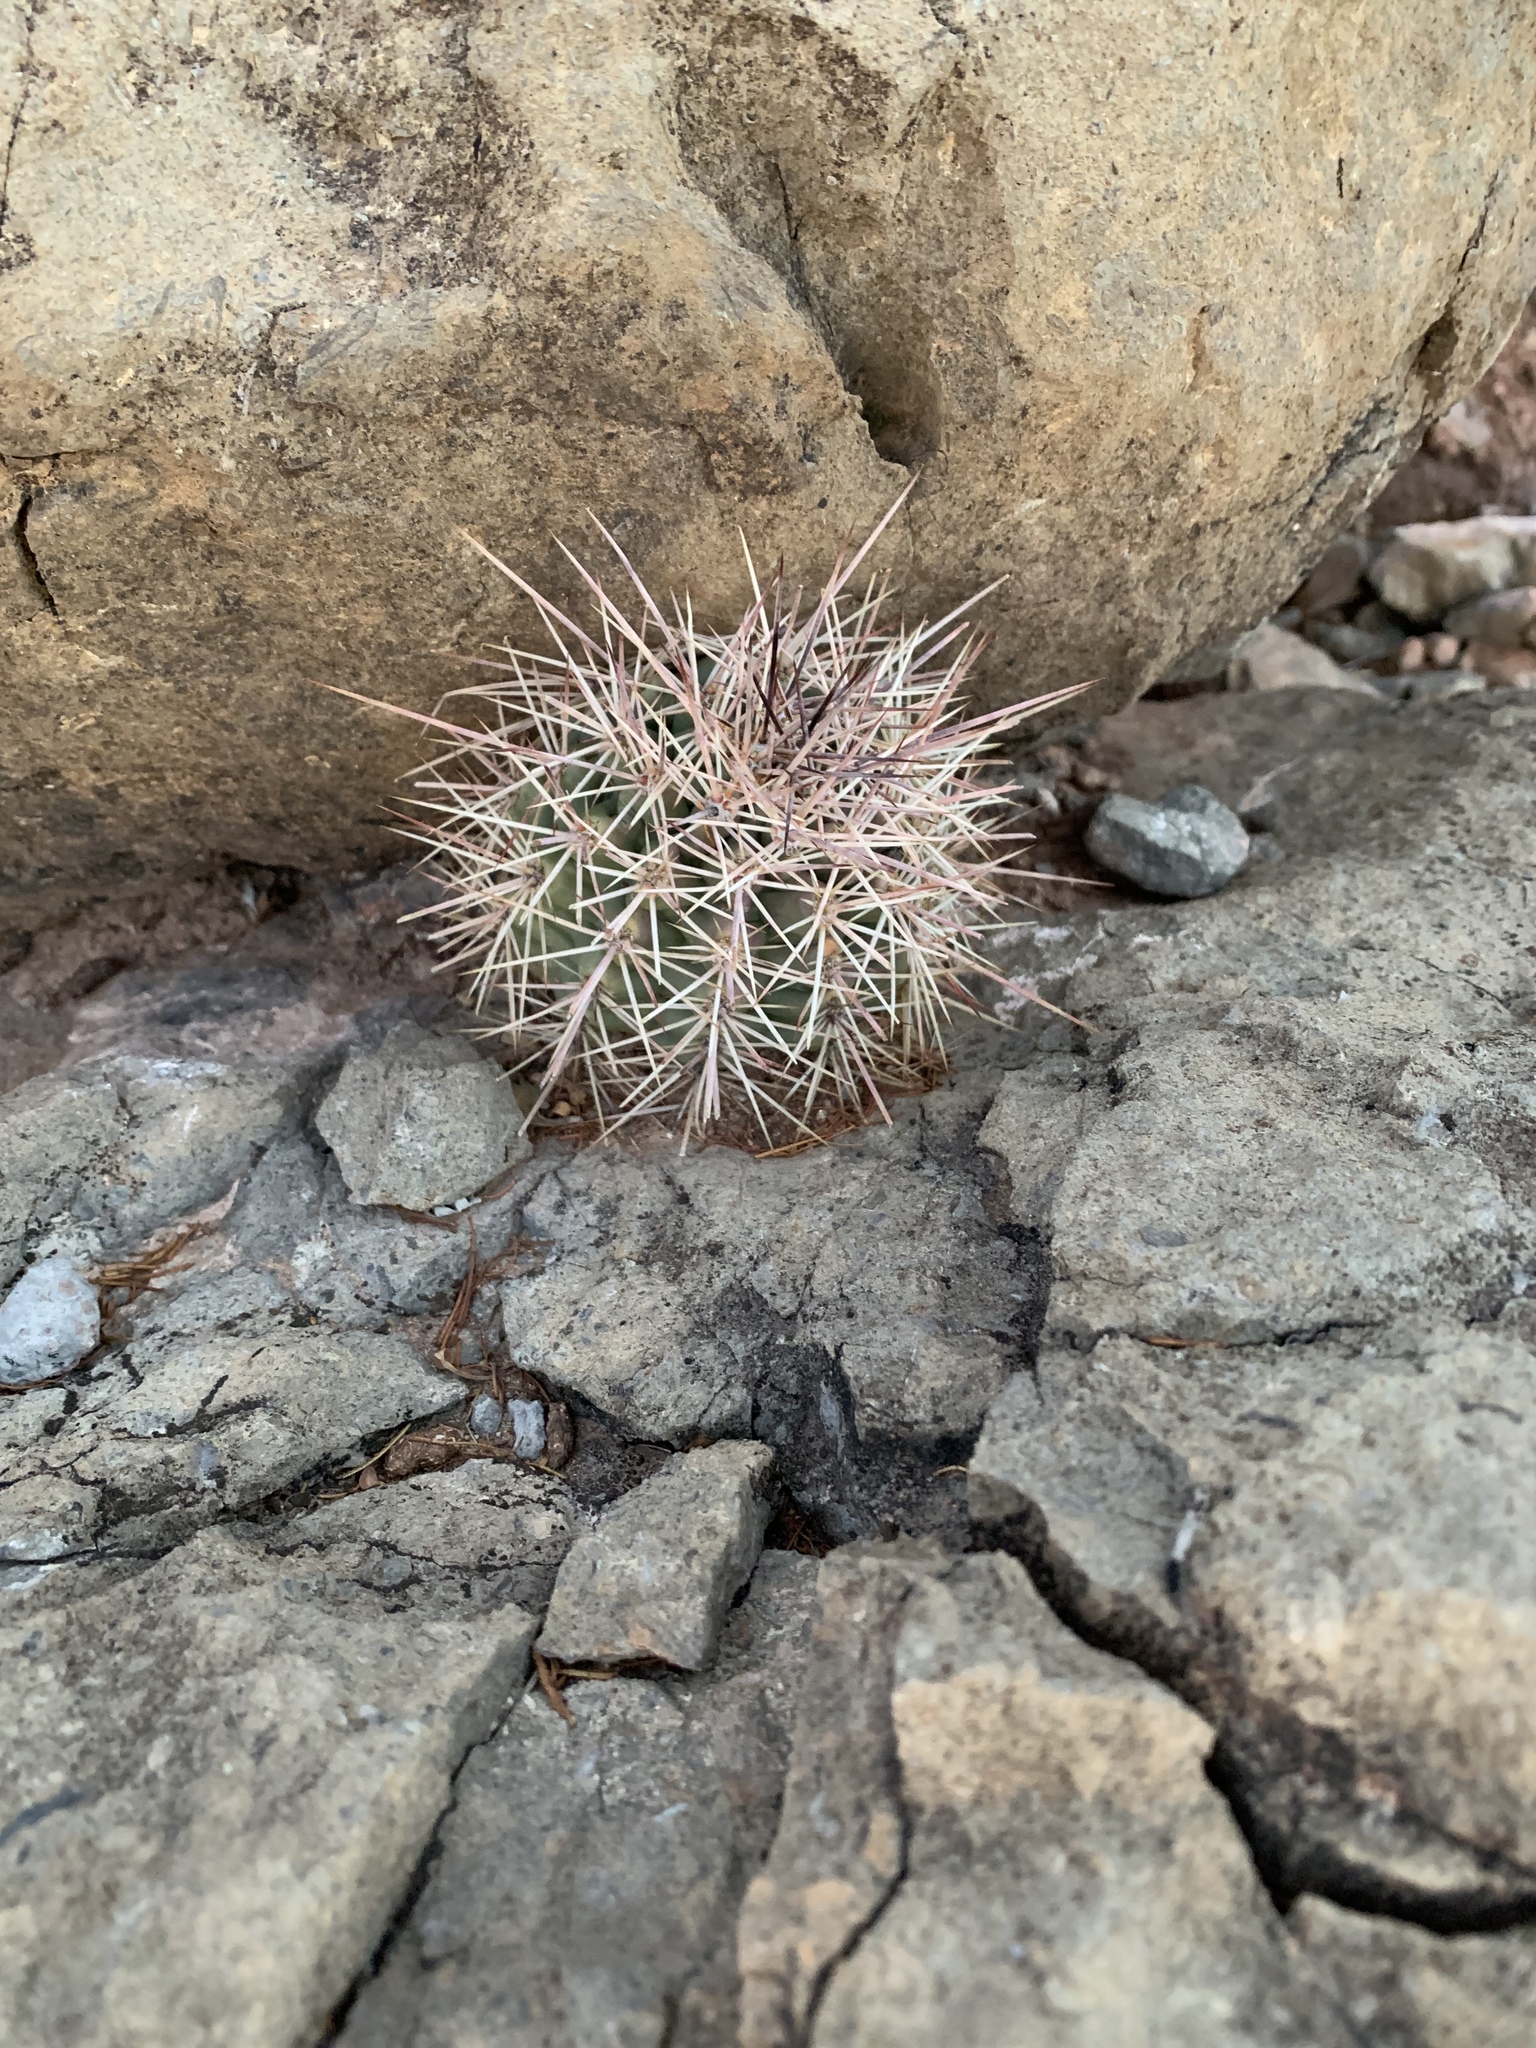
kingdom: Plantae
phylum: Tracheophyta
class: Magnoliopsida
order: Caryophyllales
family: Cactaceae
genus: Echinocereus
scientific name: Echinocereus coccineus
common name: Scarlet hedgehog cactus
